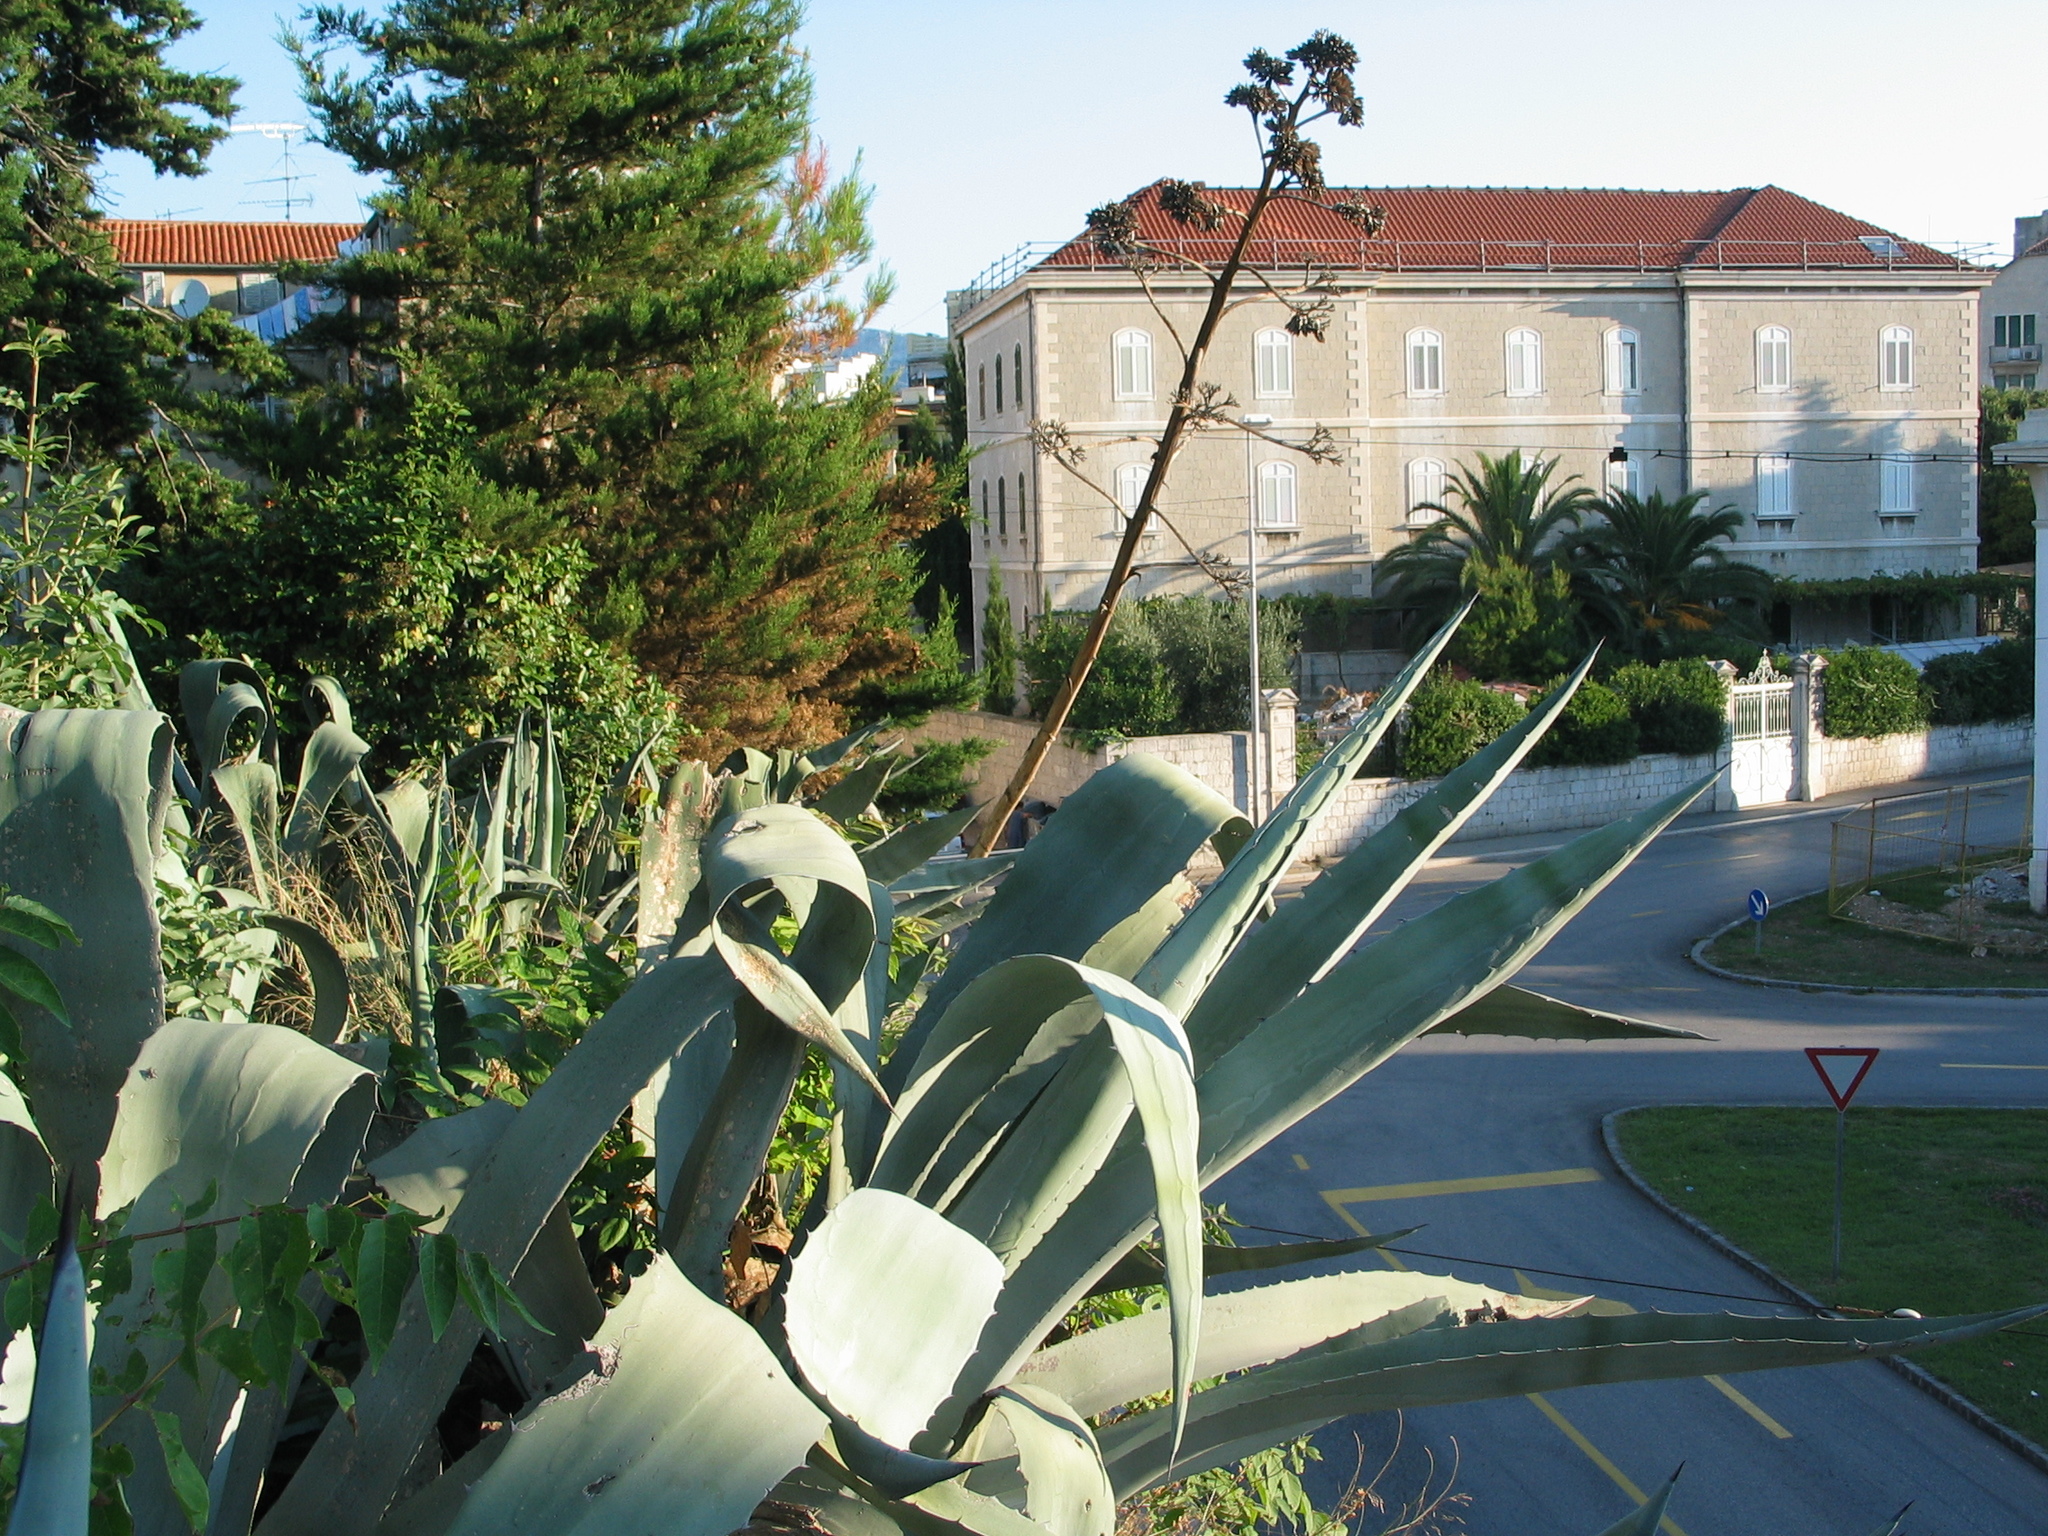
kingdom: Plantae
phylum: Tracheophyta
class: Liliopsida
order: Asparagales
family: Asparagaceae
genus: Agave
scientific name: Agave americana
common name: Centuryplant
